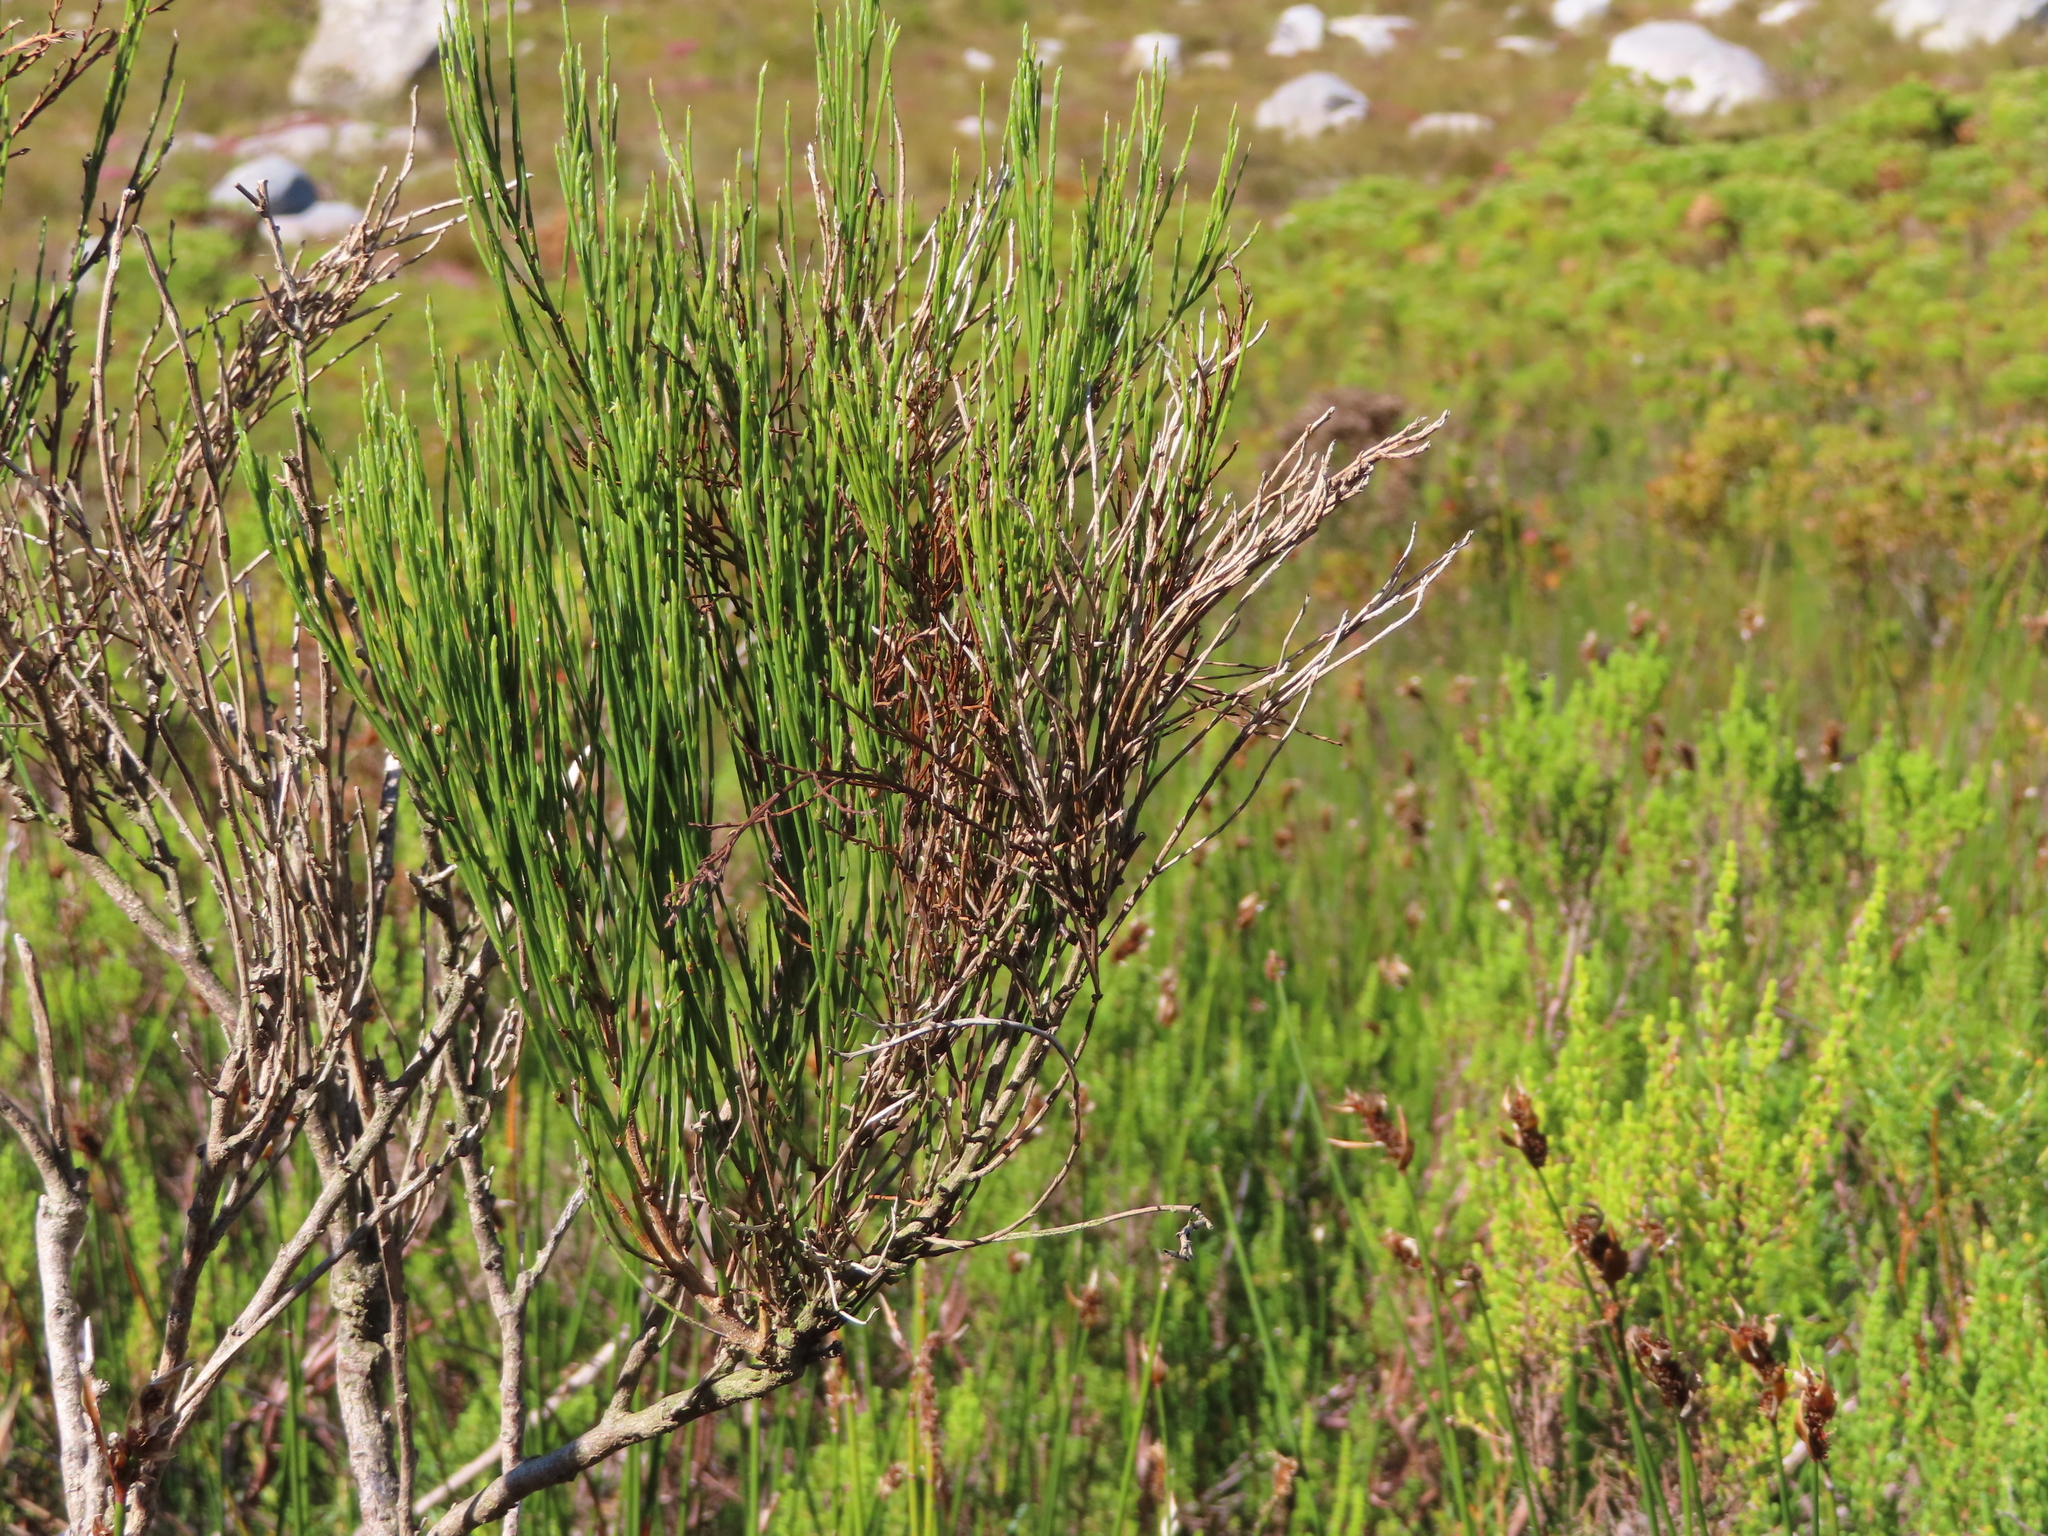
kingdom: Plantae
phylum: Tracheophyta
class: Magnoliopsida
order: Fabales
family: Fabaceae
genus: Psoralea
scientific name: Psoralea usitata
